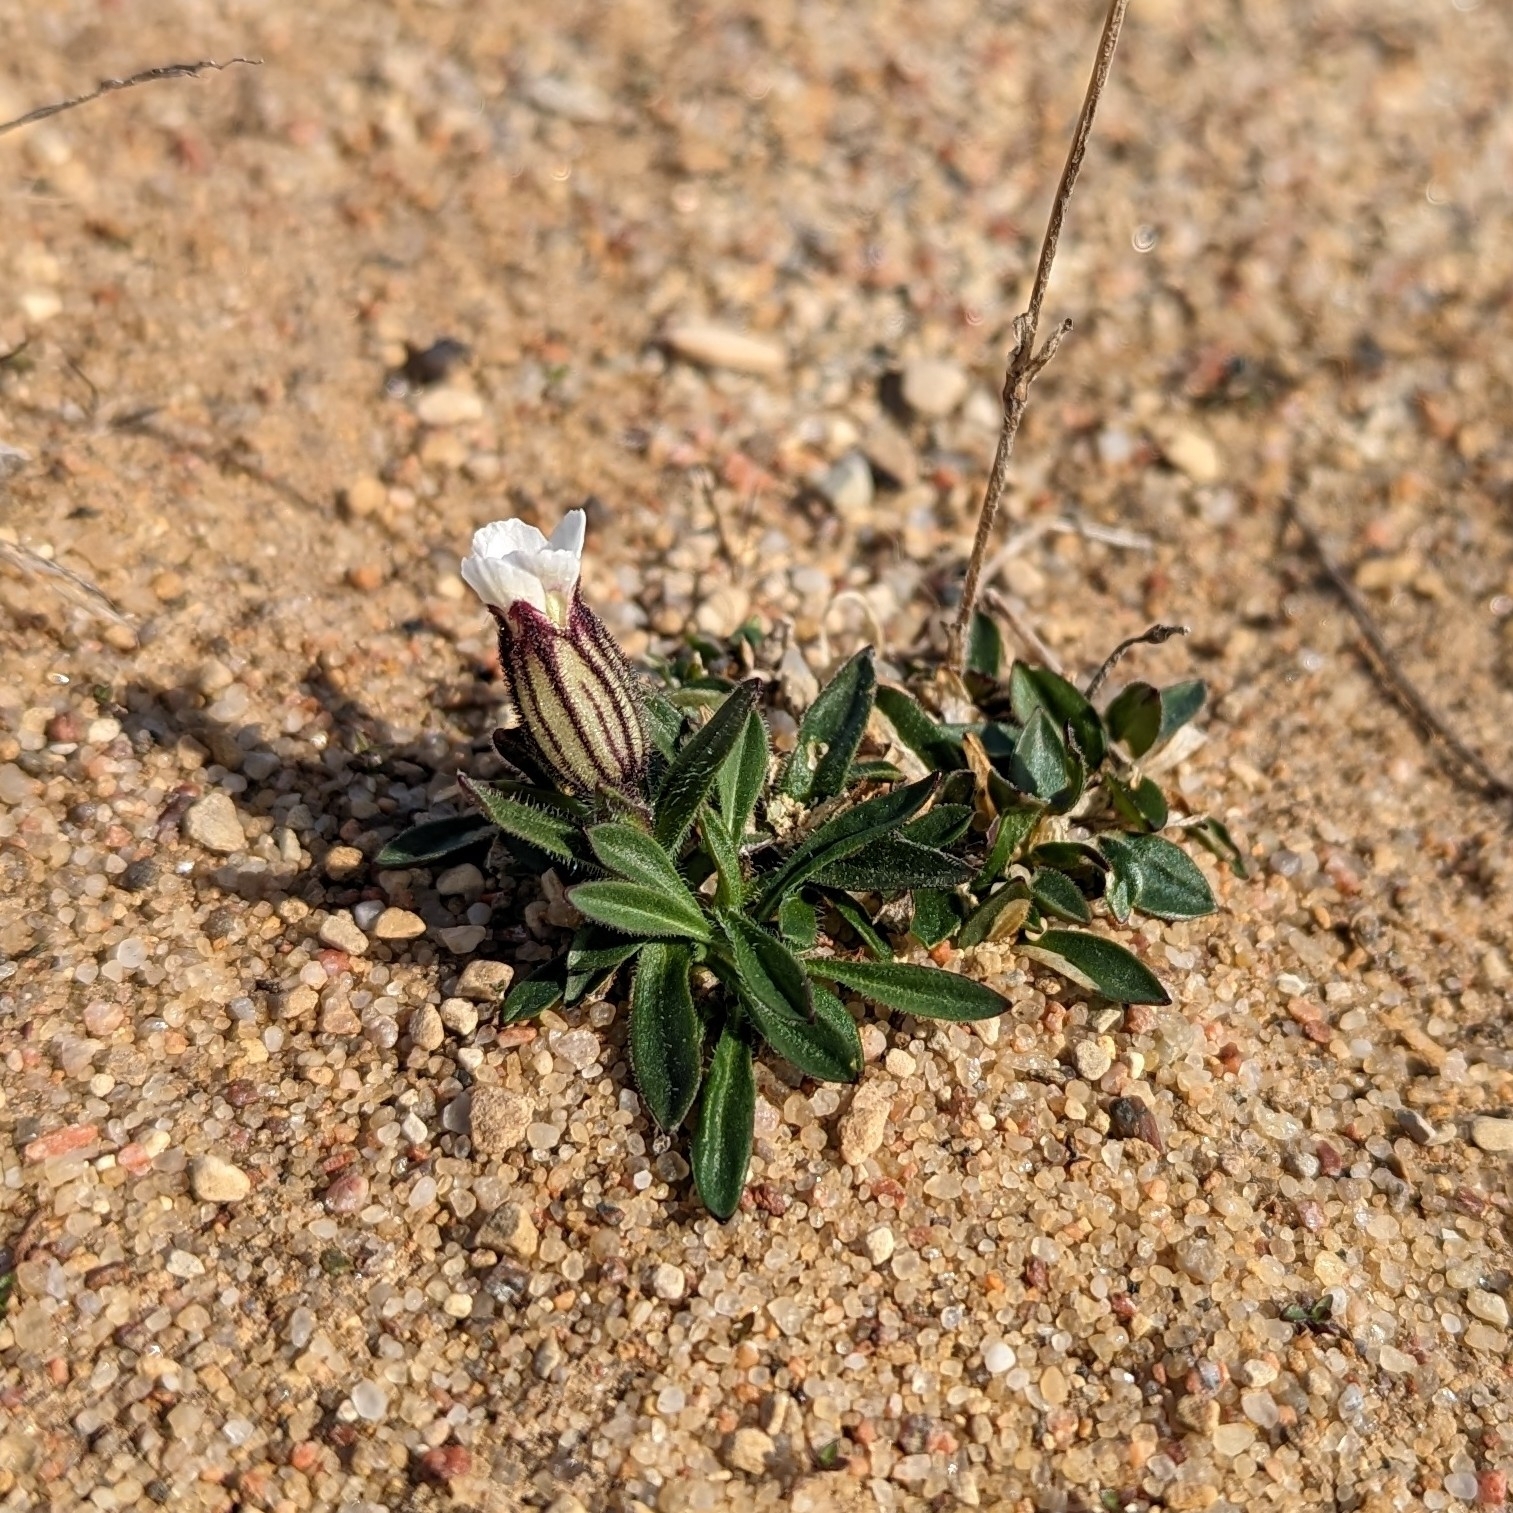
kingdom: Plantae
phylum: Tracheophyta
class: Magnoliopsida
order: Caryophyllales
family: Caryophyllaceae
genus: Silene
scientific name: Silene involucrata
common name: Greater arctic campion
